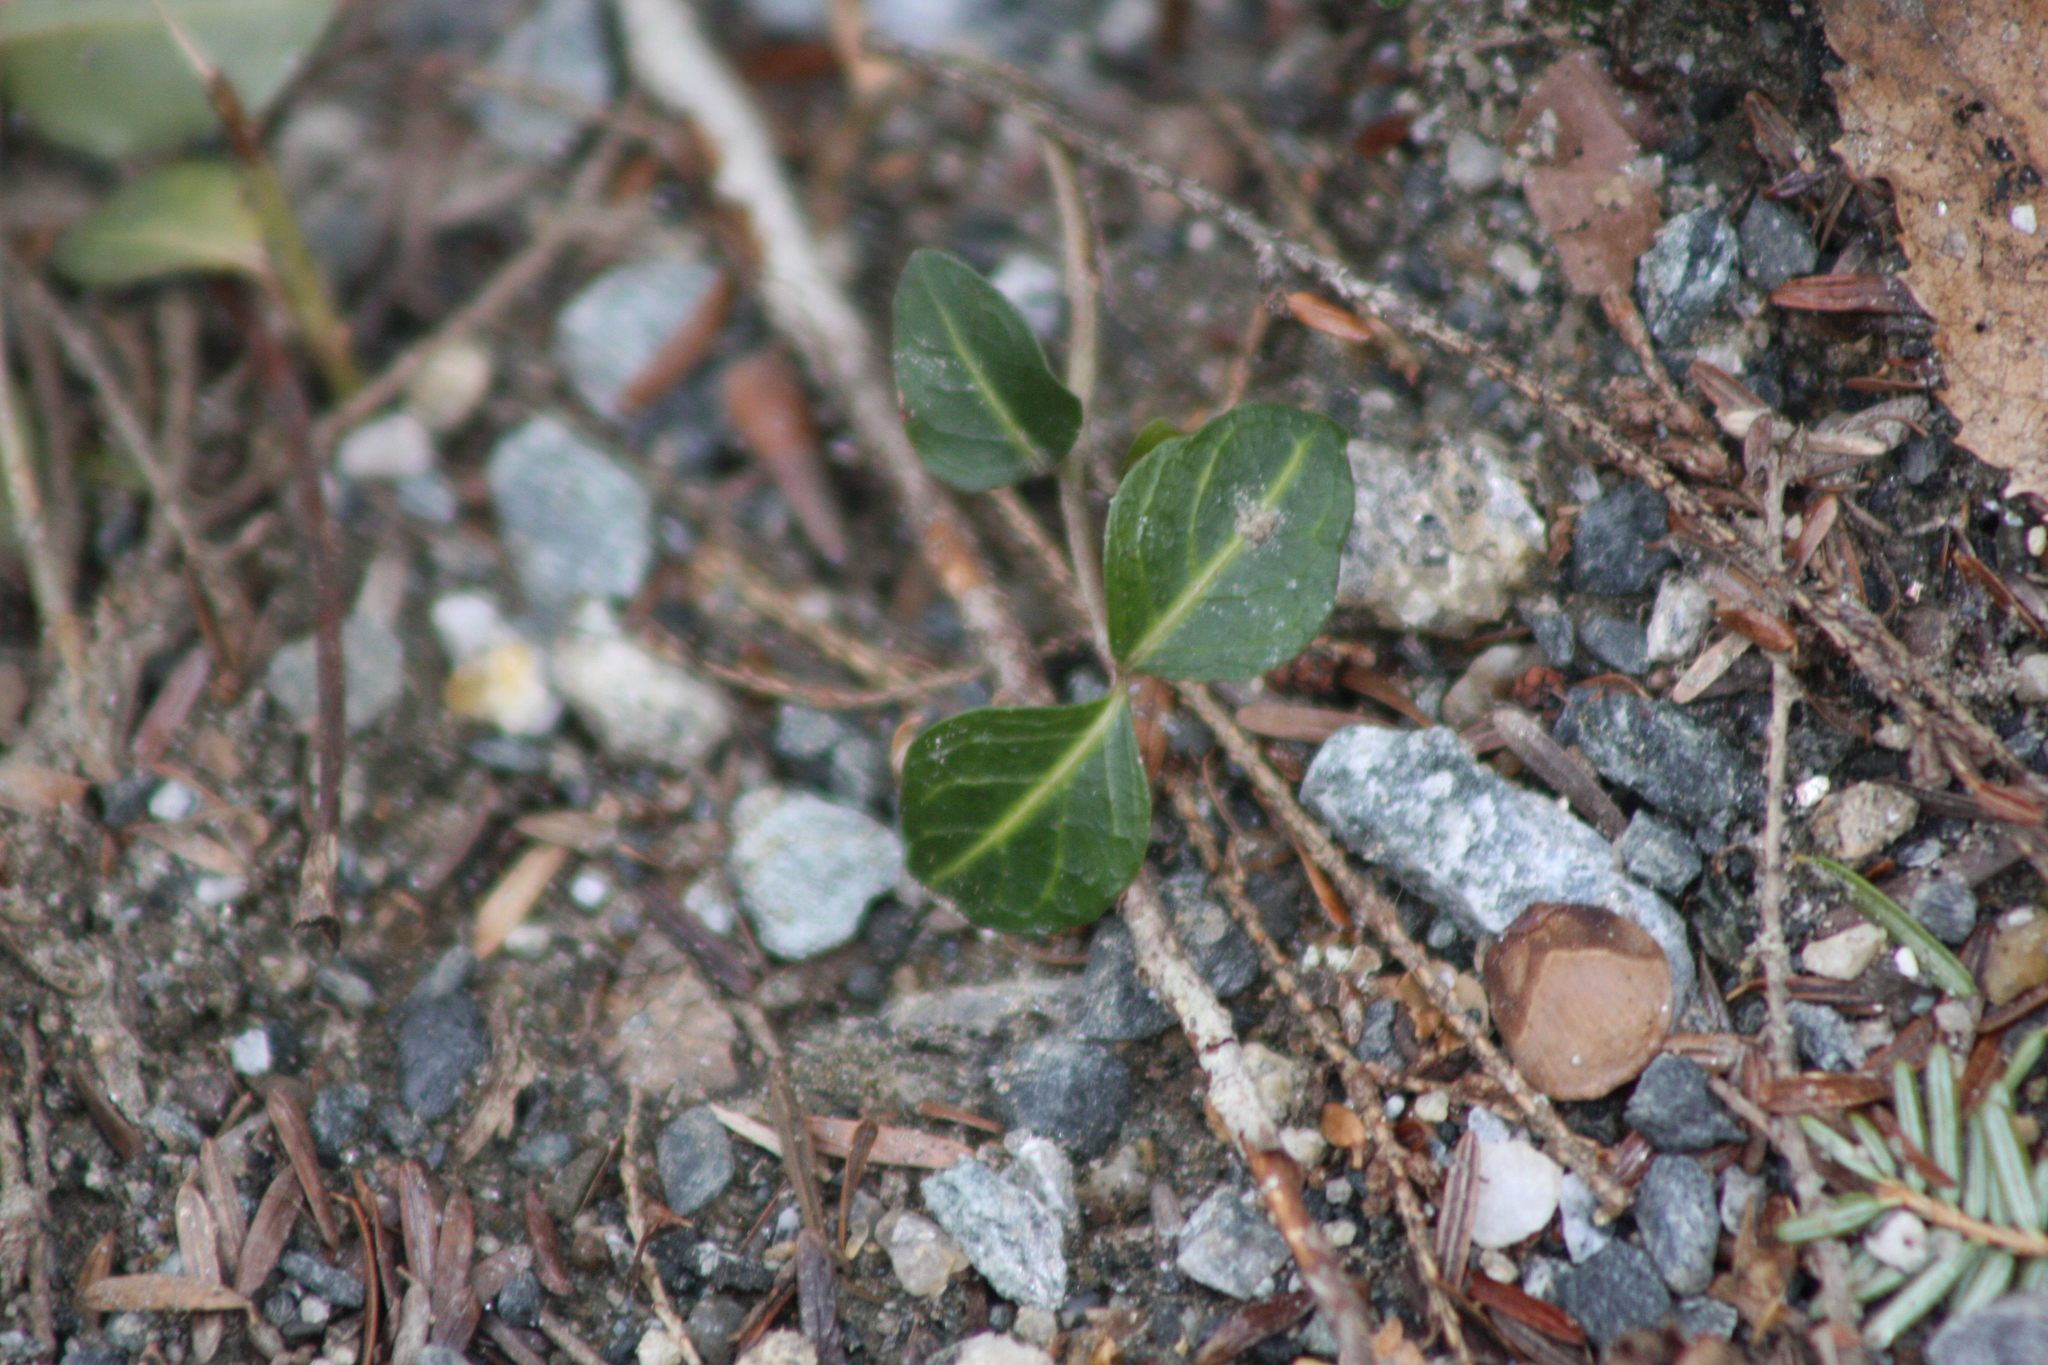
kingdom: Plantae
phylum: Tracheophyta
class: Magnoliopsida
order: Gentianales
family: Rubiaceae
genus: Mitchella
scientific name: Mitchella repens
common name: Partridge-berry
